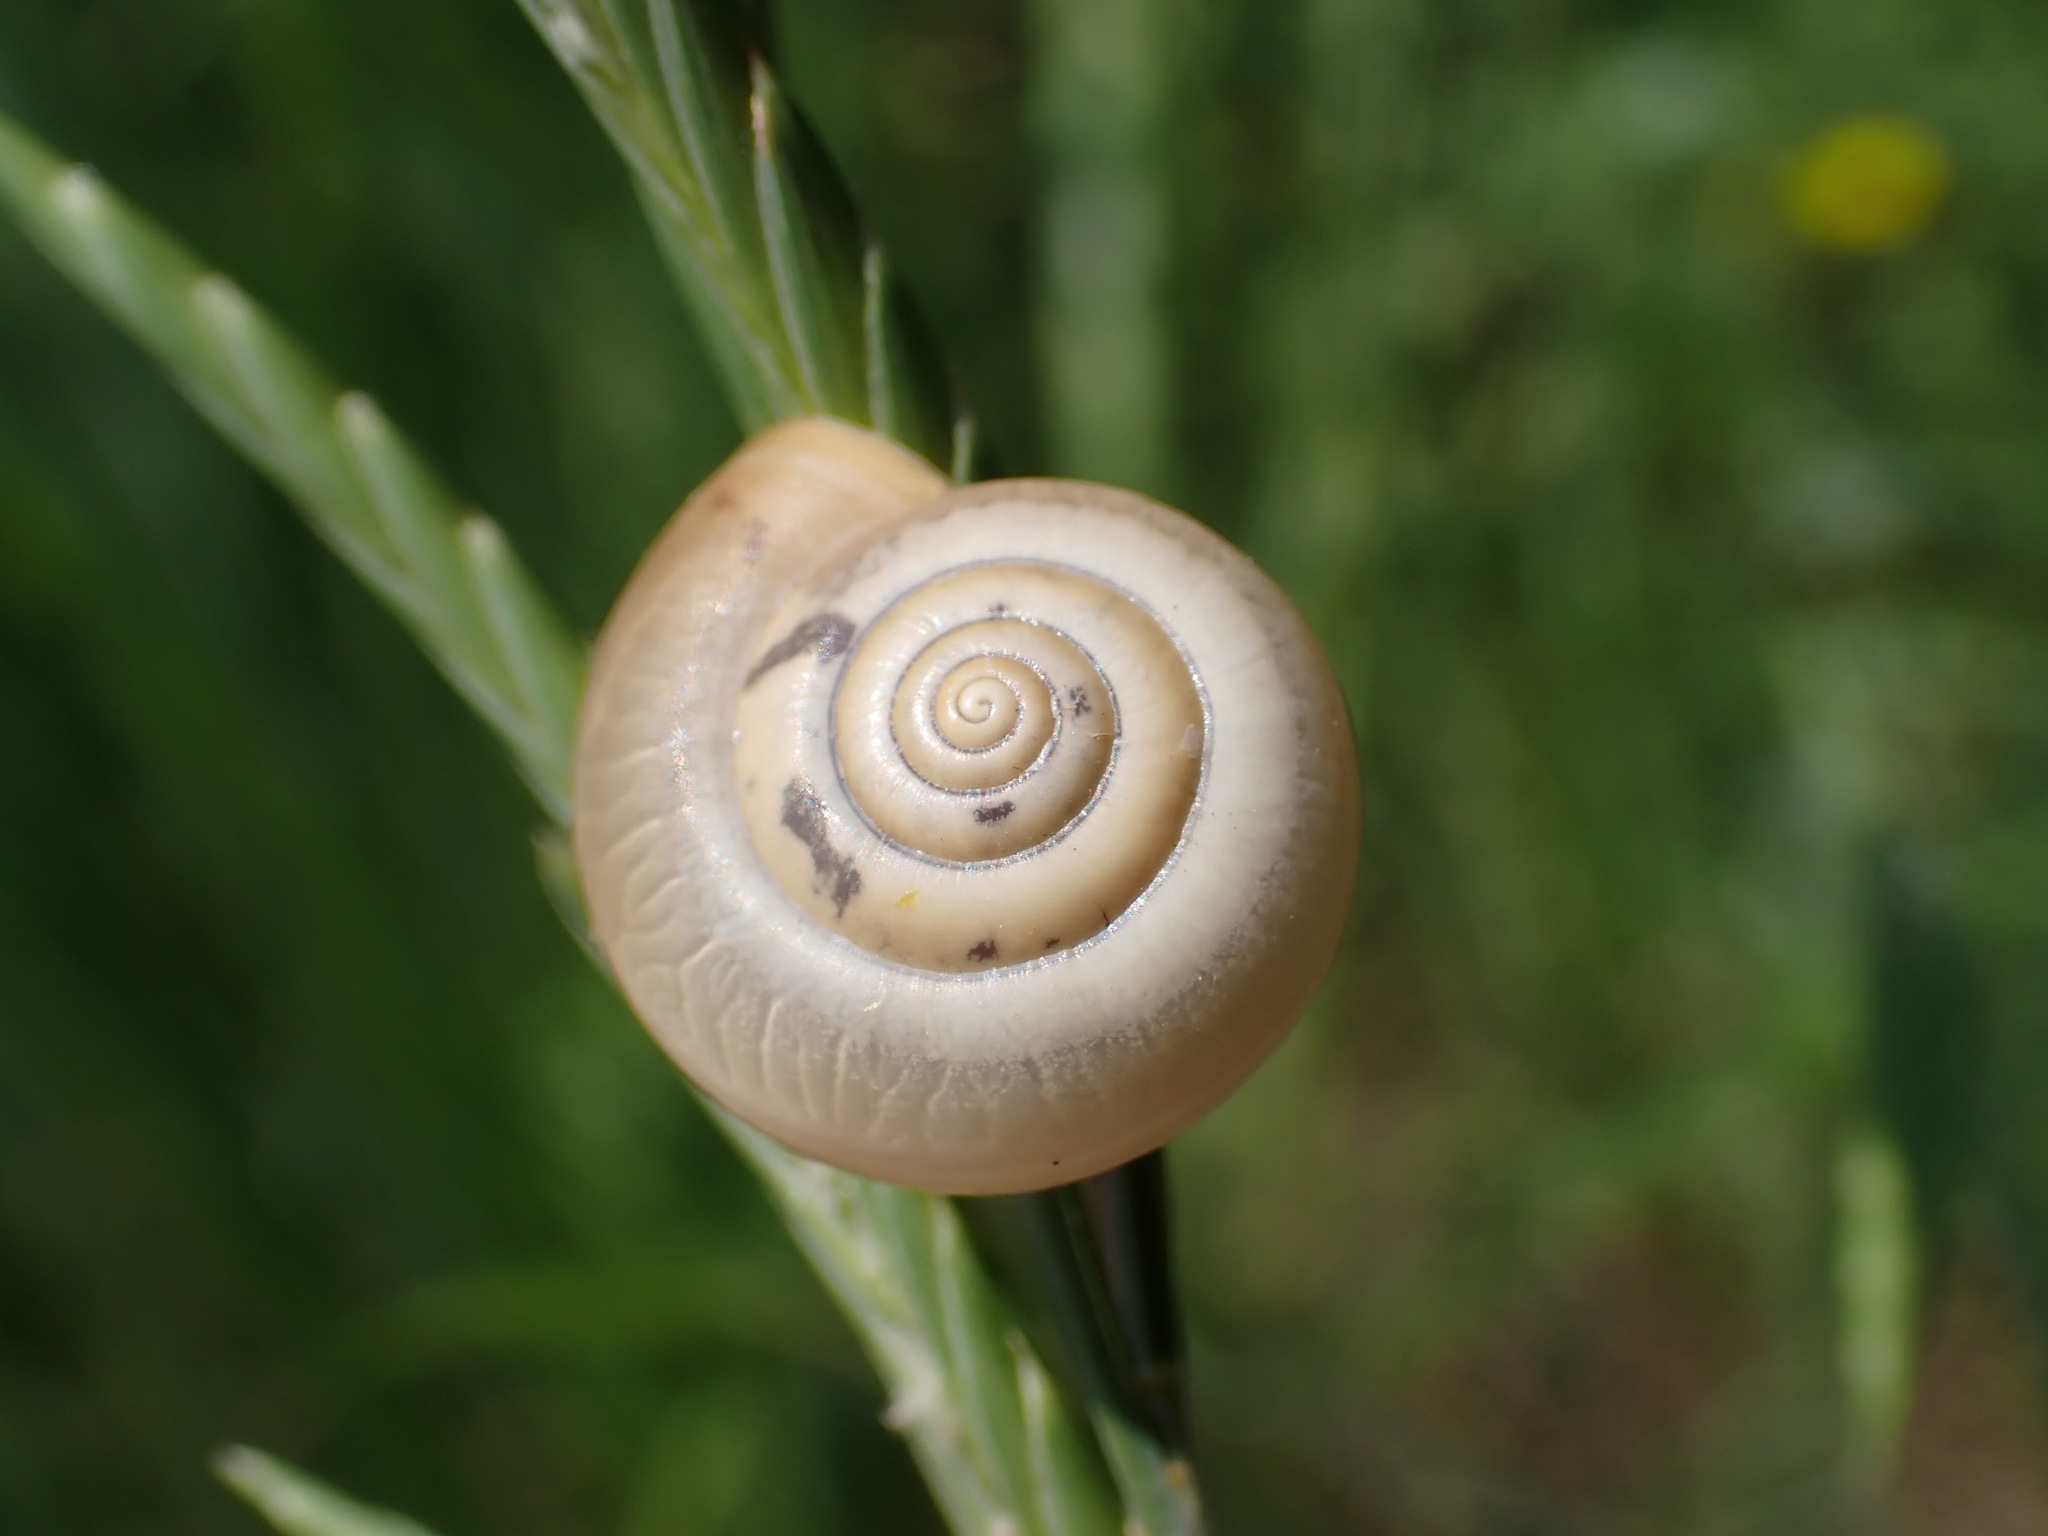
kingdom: Animalia
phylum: Mollusca
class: Gastropoda
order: Stylommatophora
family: Hygromiidae
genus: Monacha
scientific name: Monacha cartusiana
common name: Carthusian snail
